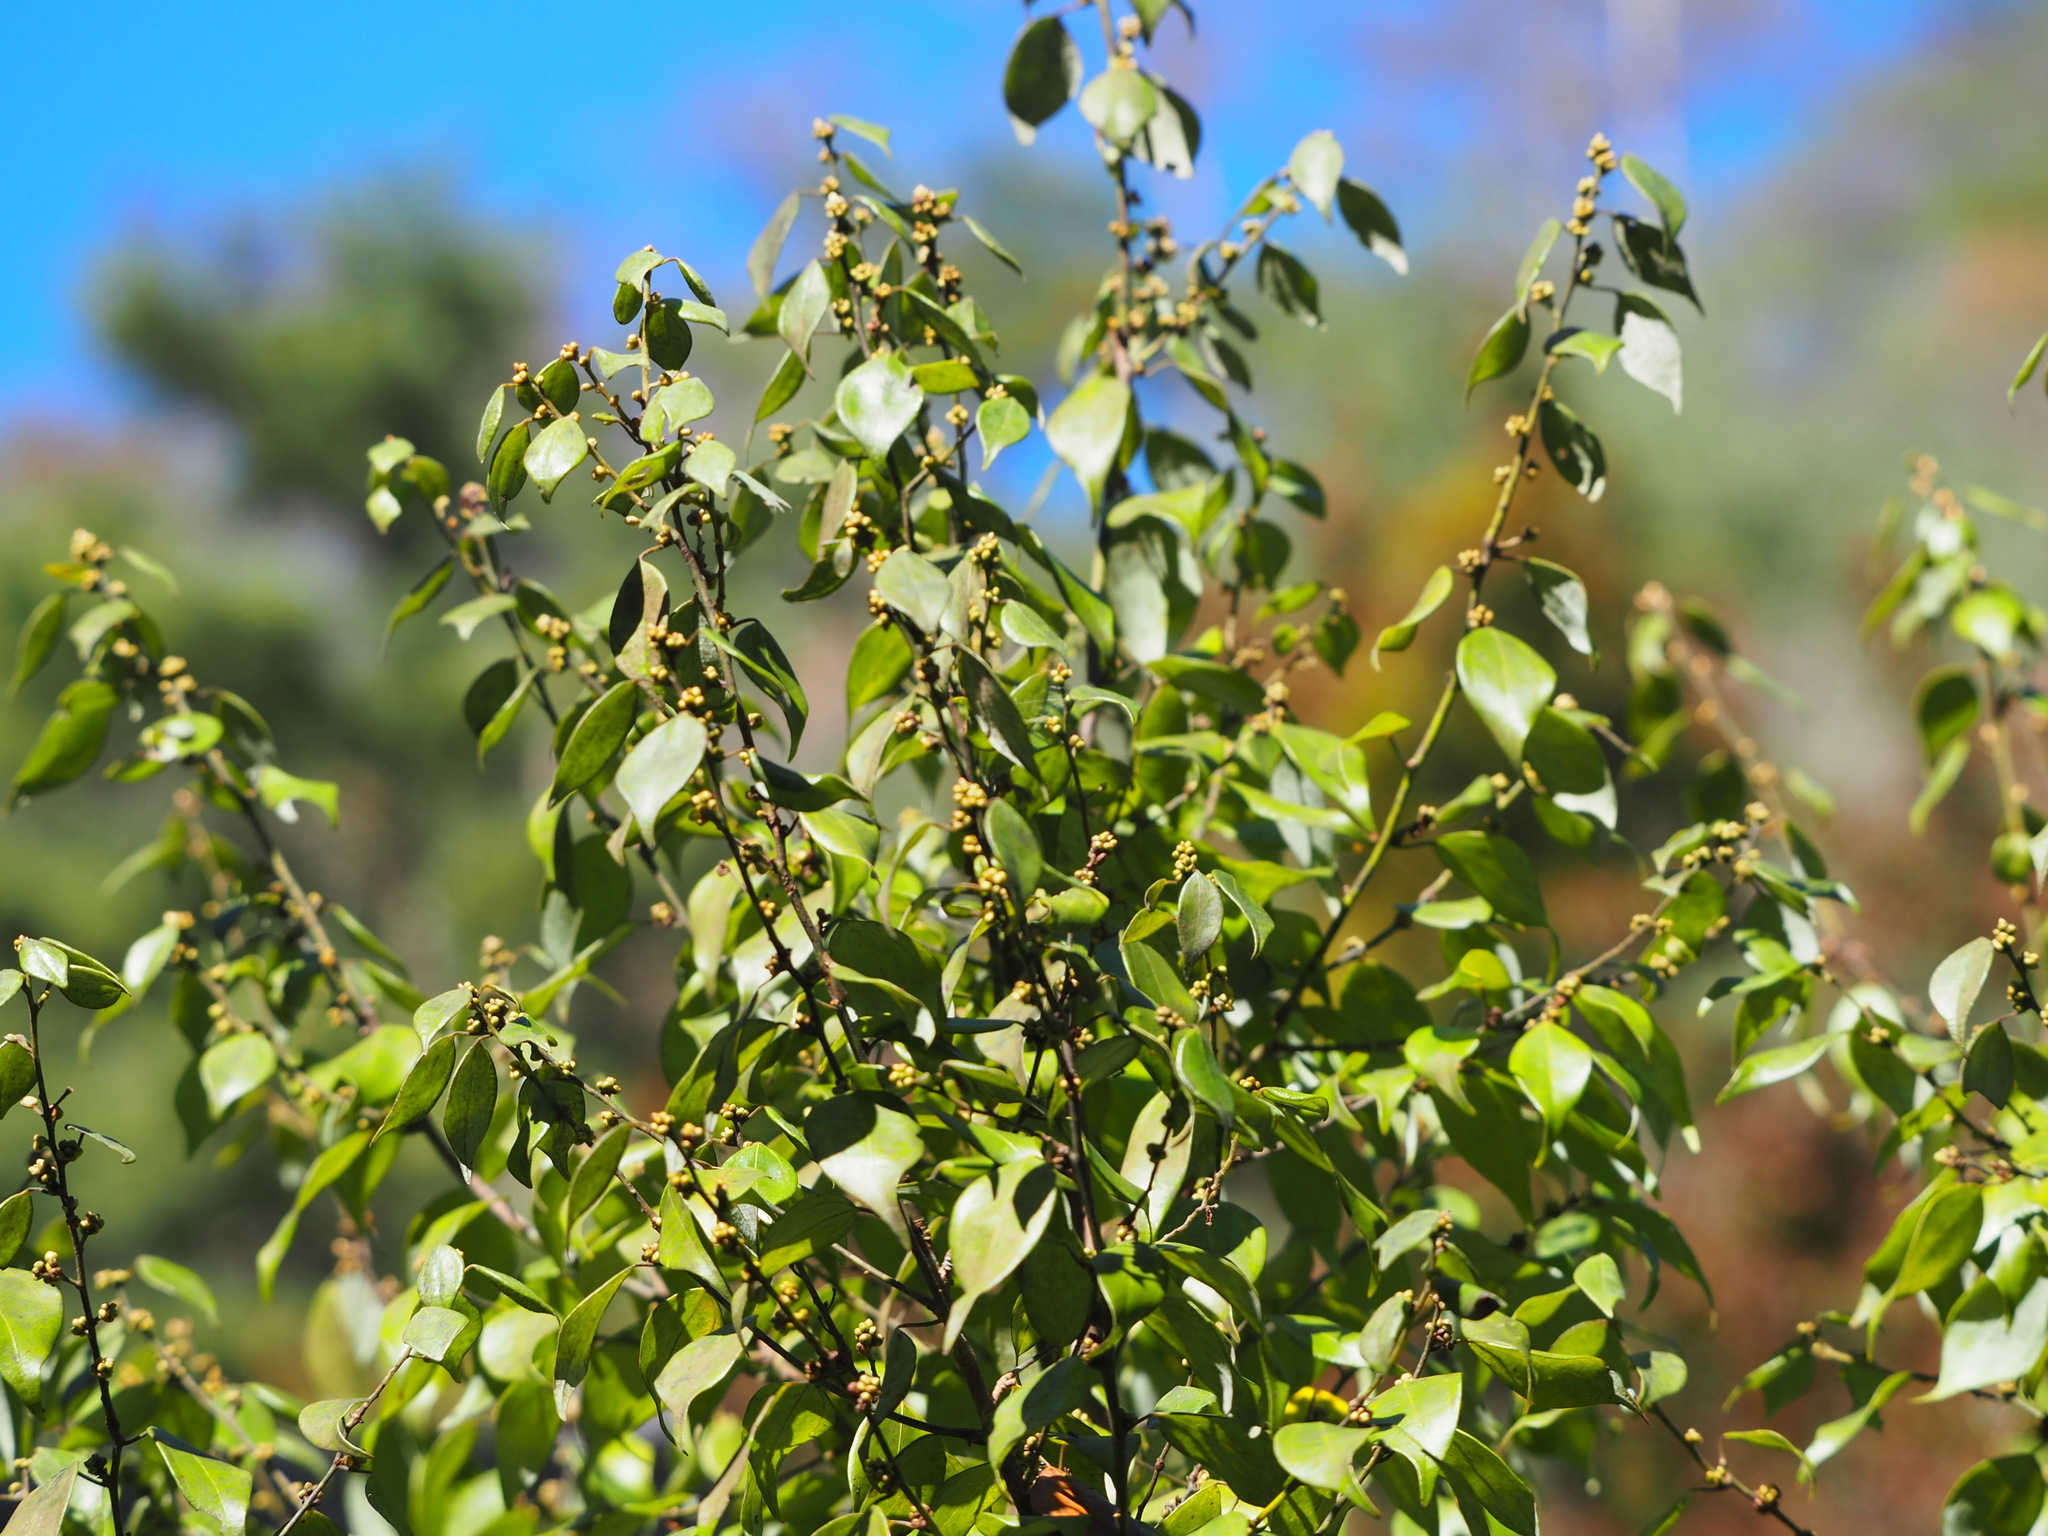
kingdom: Plantae
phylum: Tracheophyta
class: Magnoliopsida
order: Laurales
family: Lauraceae
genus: Lindera
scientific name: Lindera aggregata
